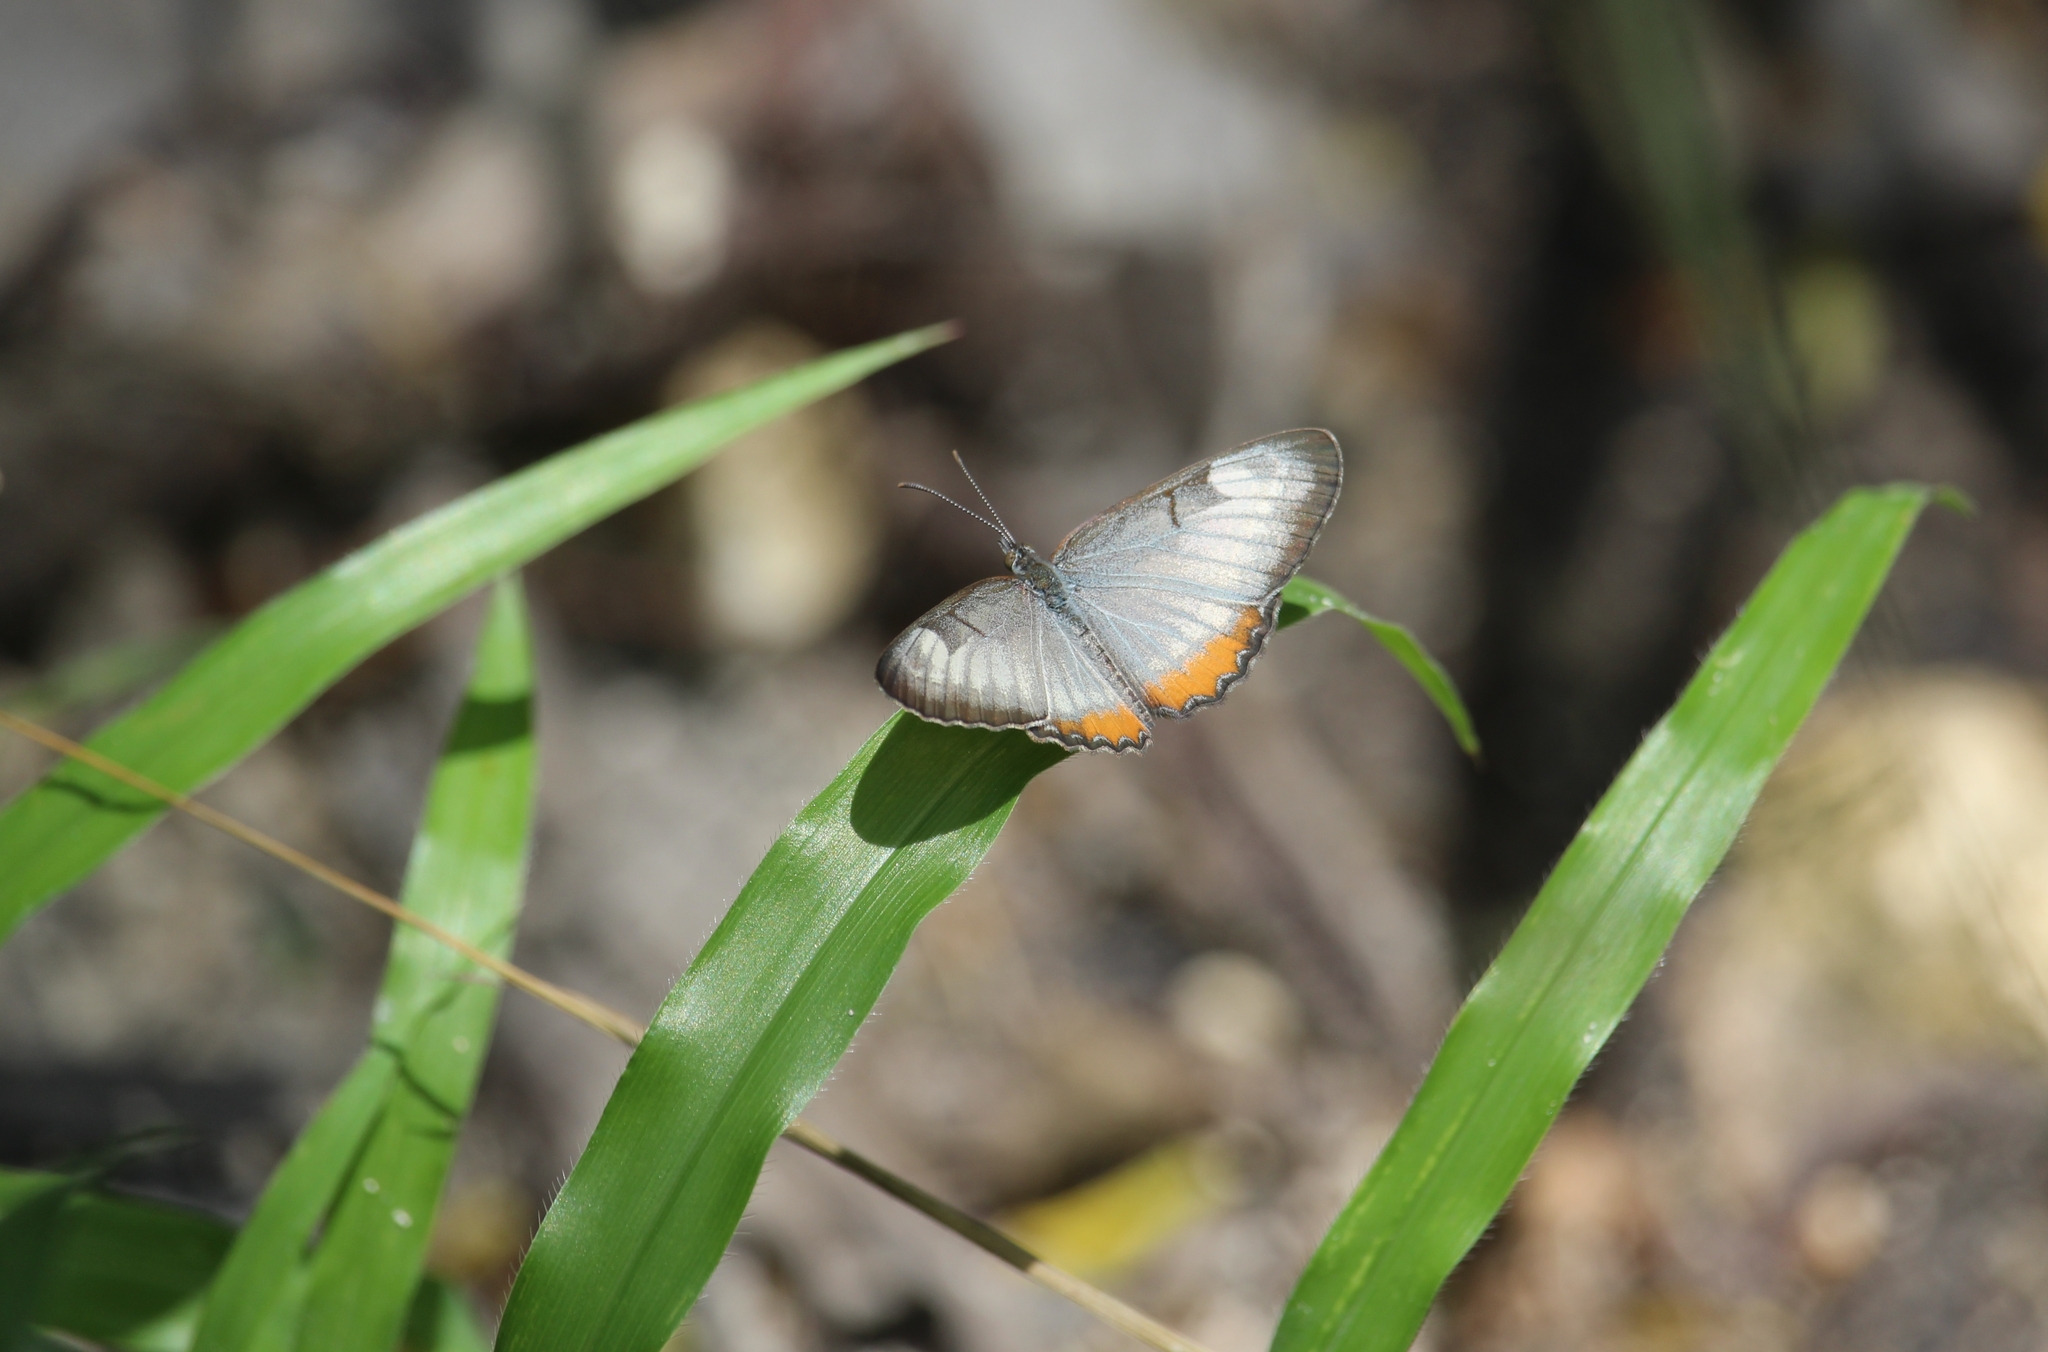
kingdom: Animalia
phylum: Arthropoda
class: Insecta
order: Lepidoptera
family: Nymphalidae
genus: Mestra
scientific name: Mestra amymone
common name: Common mestra
